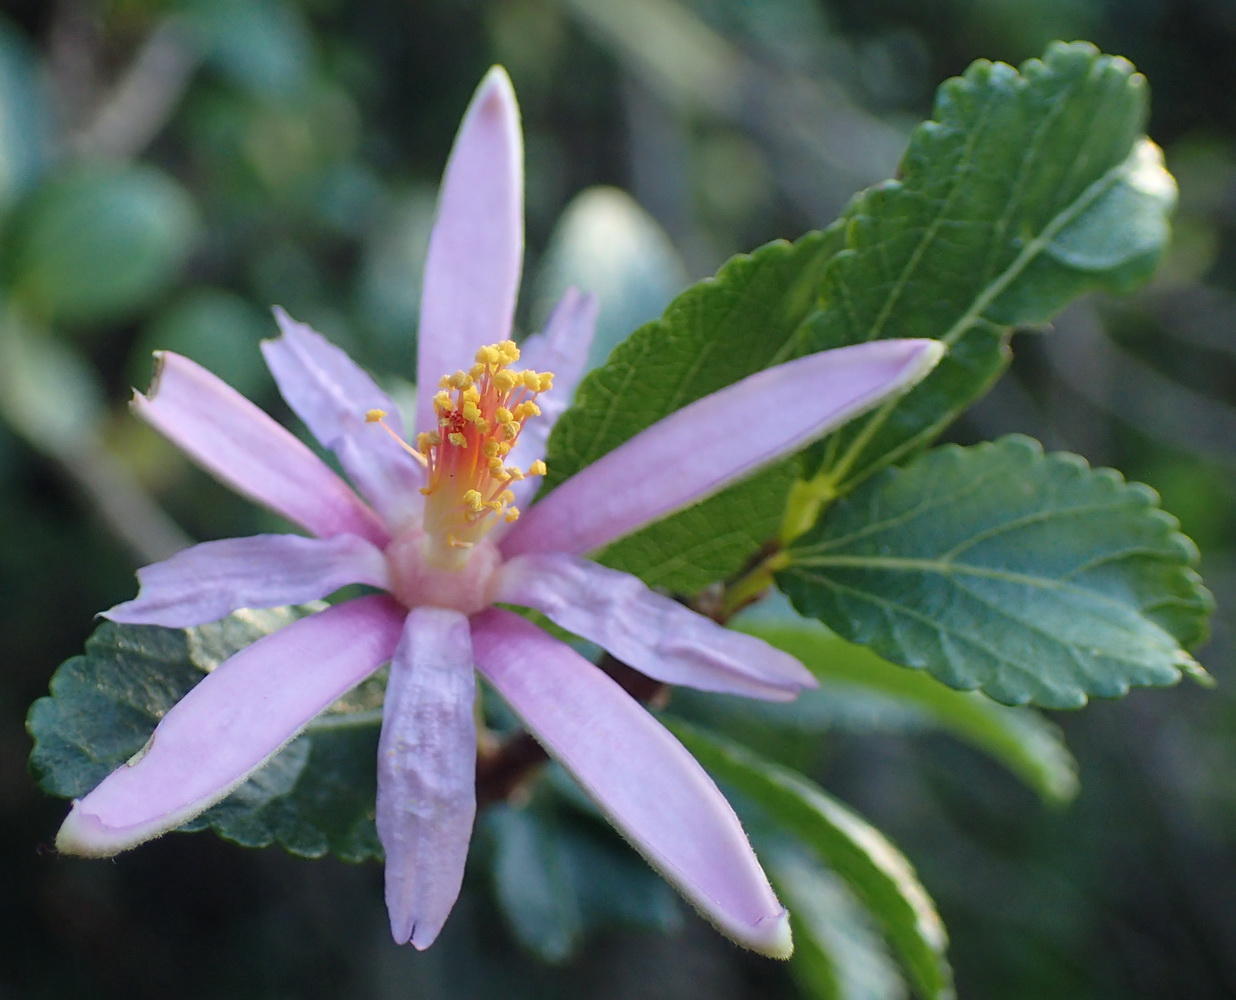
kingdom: Plantae
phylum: Tracheophyta
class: Magnoliopsida
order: Malvales
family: Malvaceae
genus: Grewia
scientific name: Grewia occidentalis
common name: Crossberry
